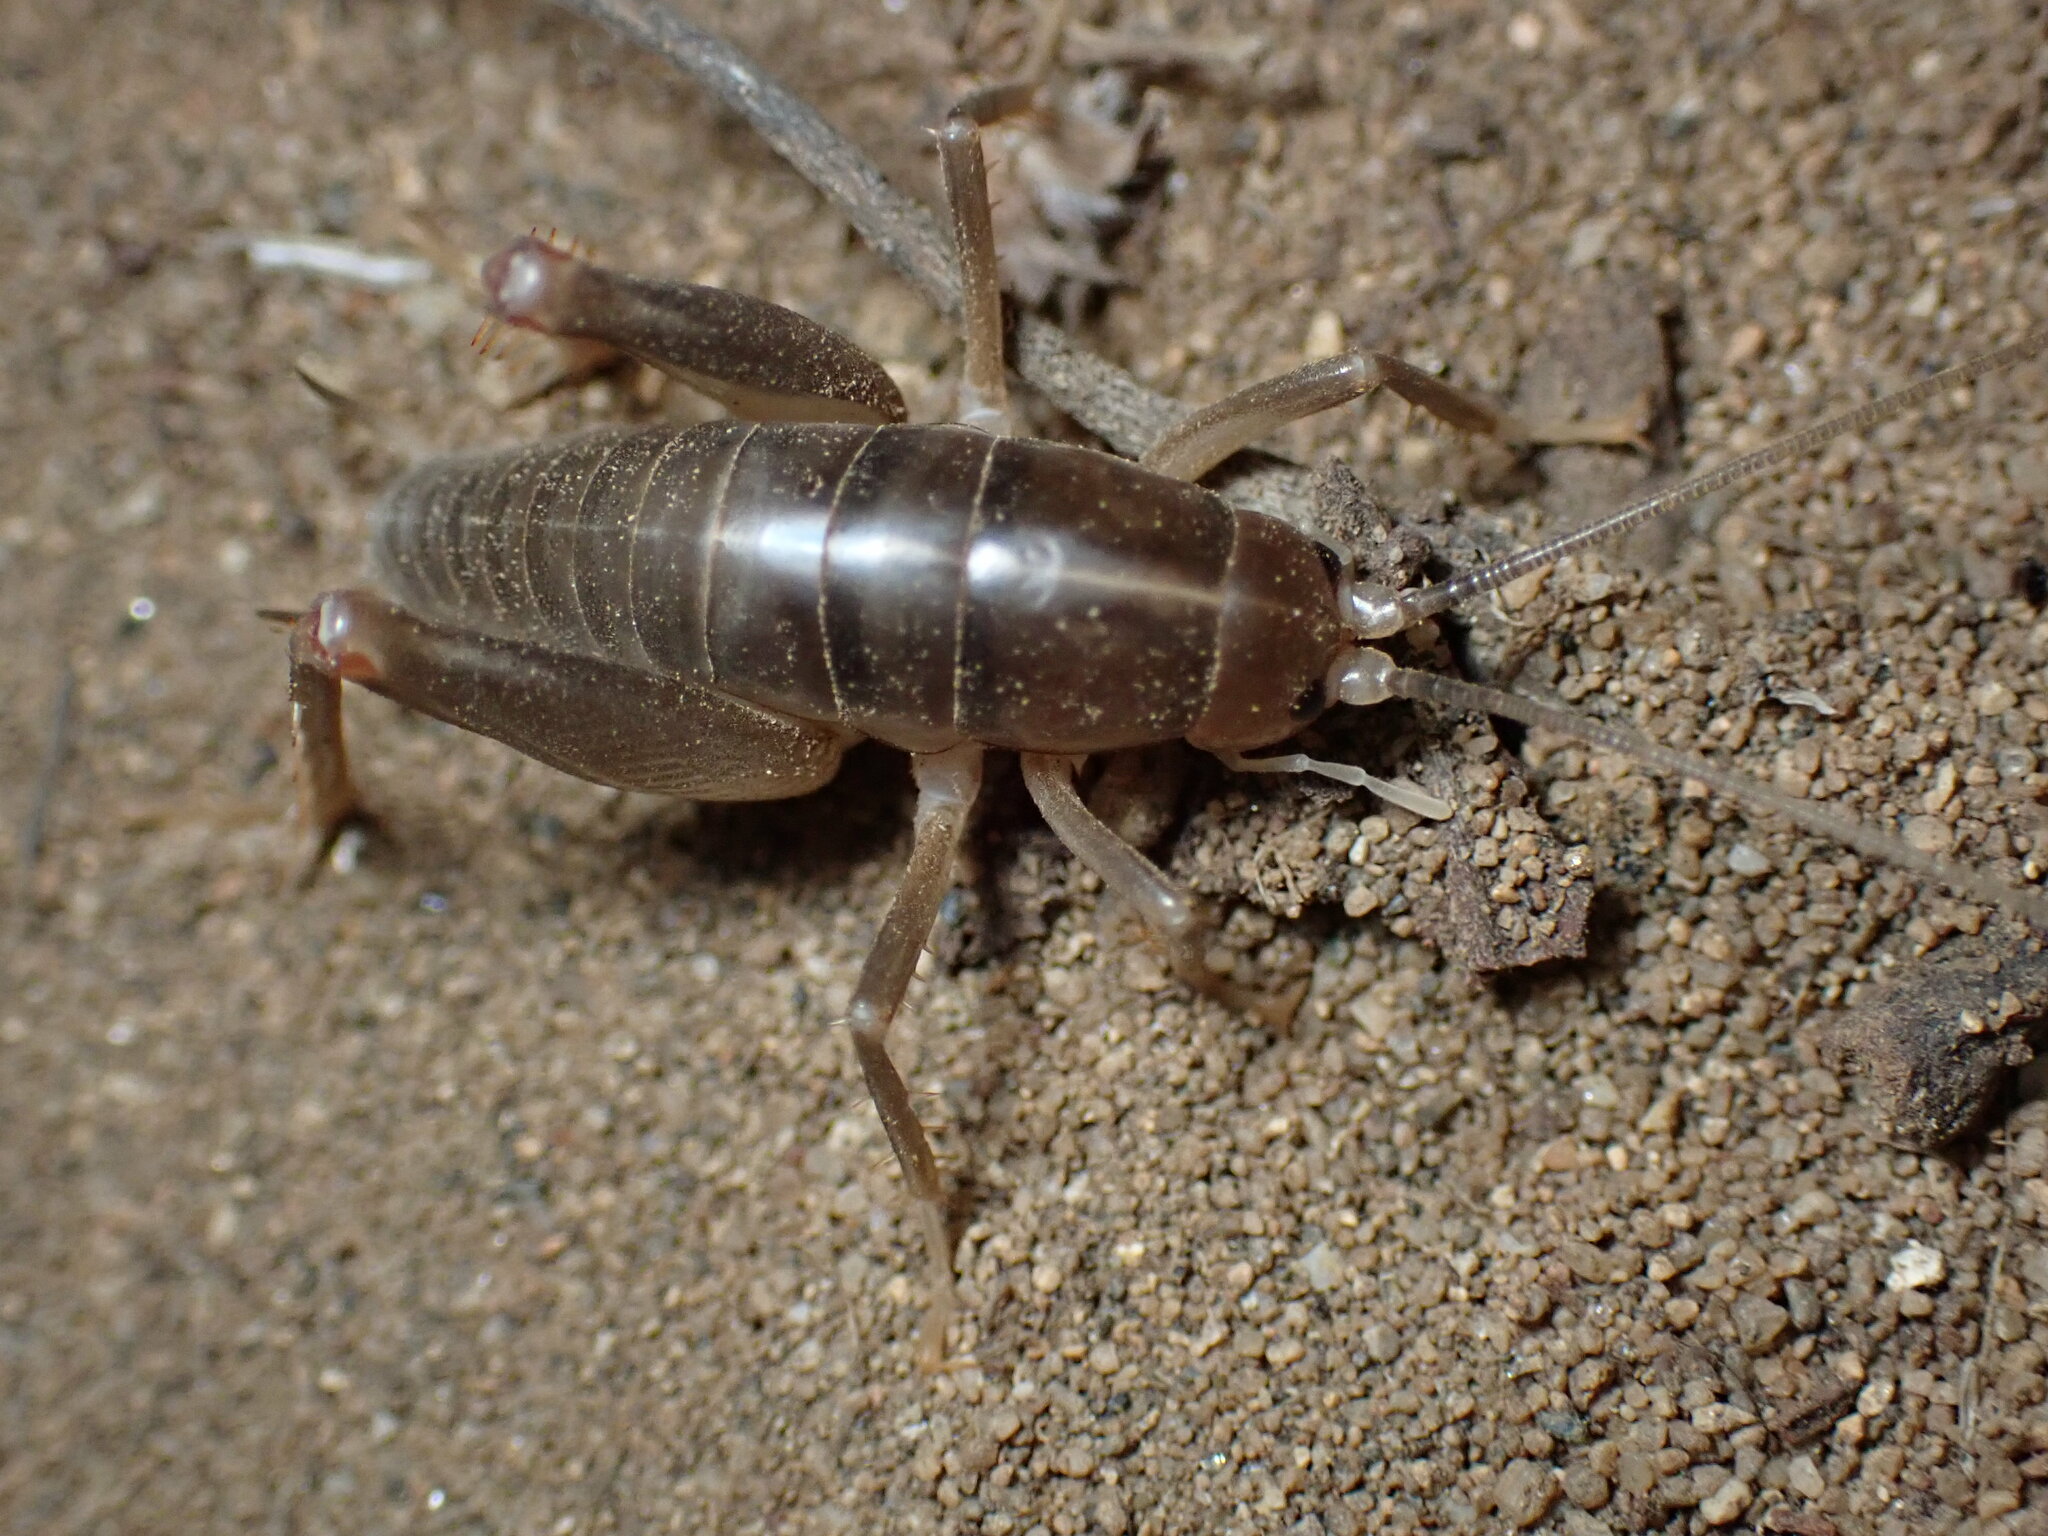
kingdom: Animalia
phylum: Arthropoda
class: Insecta
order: Orthoptera
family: Rhaphidophoridae
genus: Ceuthophilus
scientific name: Ceuthophilus californianus
